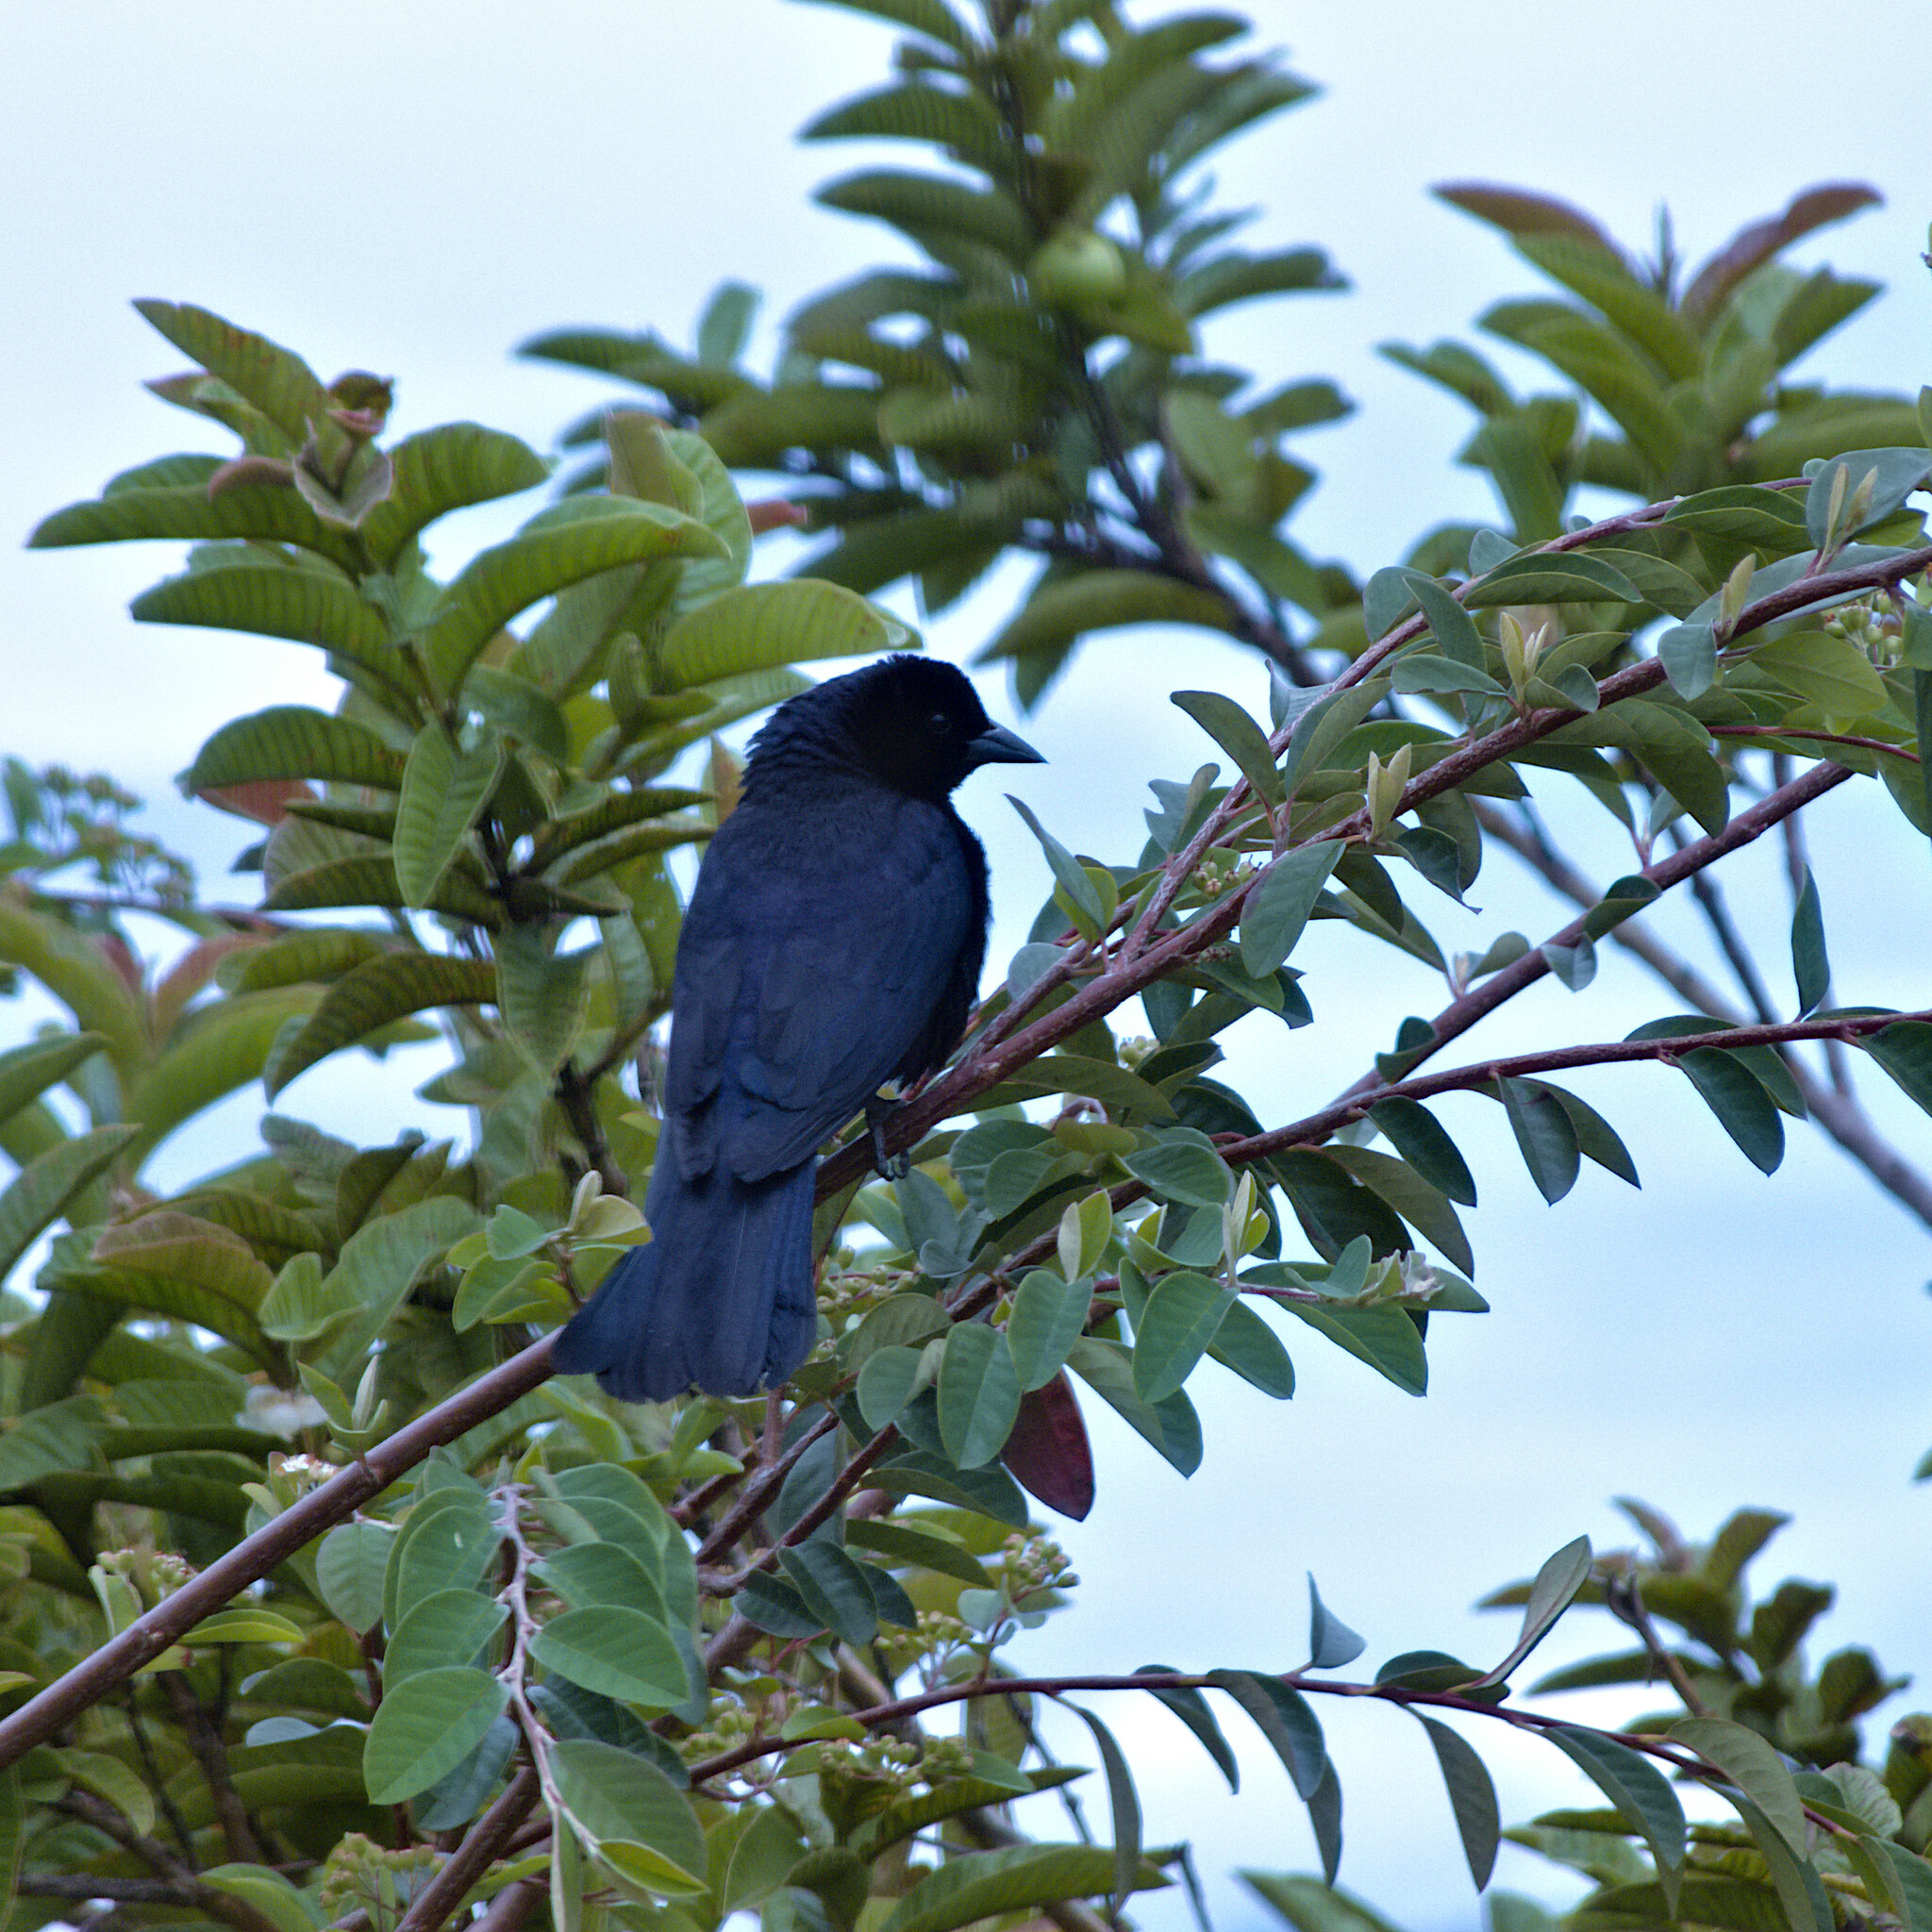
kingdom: Animalia
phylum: Chordata
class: Aves
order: Passeriformes
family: Icteridae
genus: Molothrus
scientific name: Molothrus bonariensis
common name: Shiny cowbird
